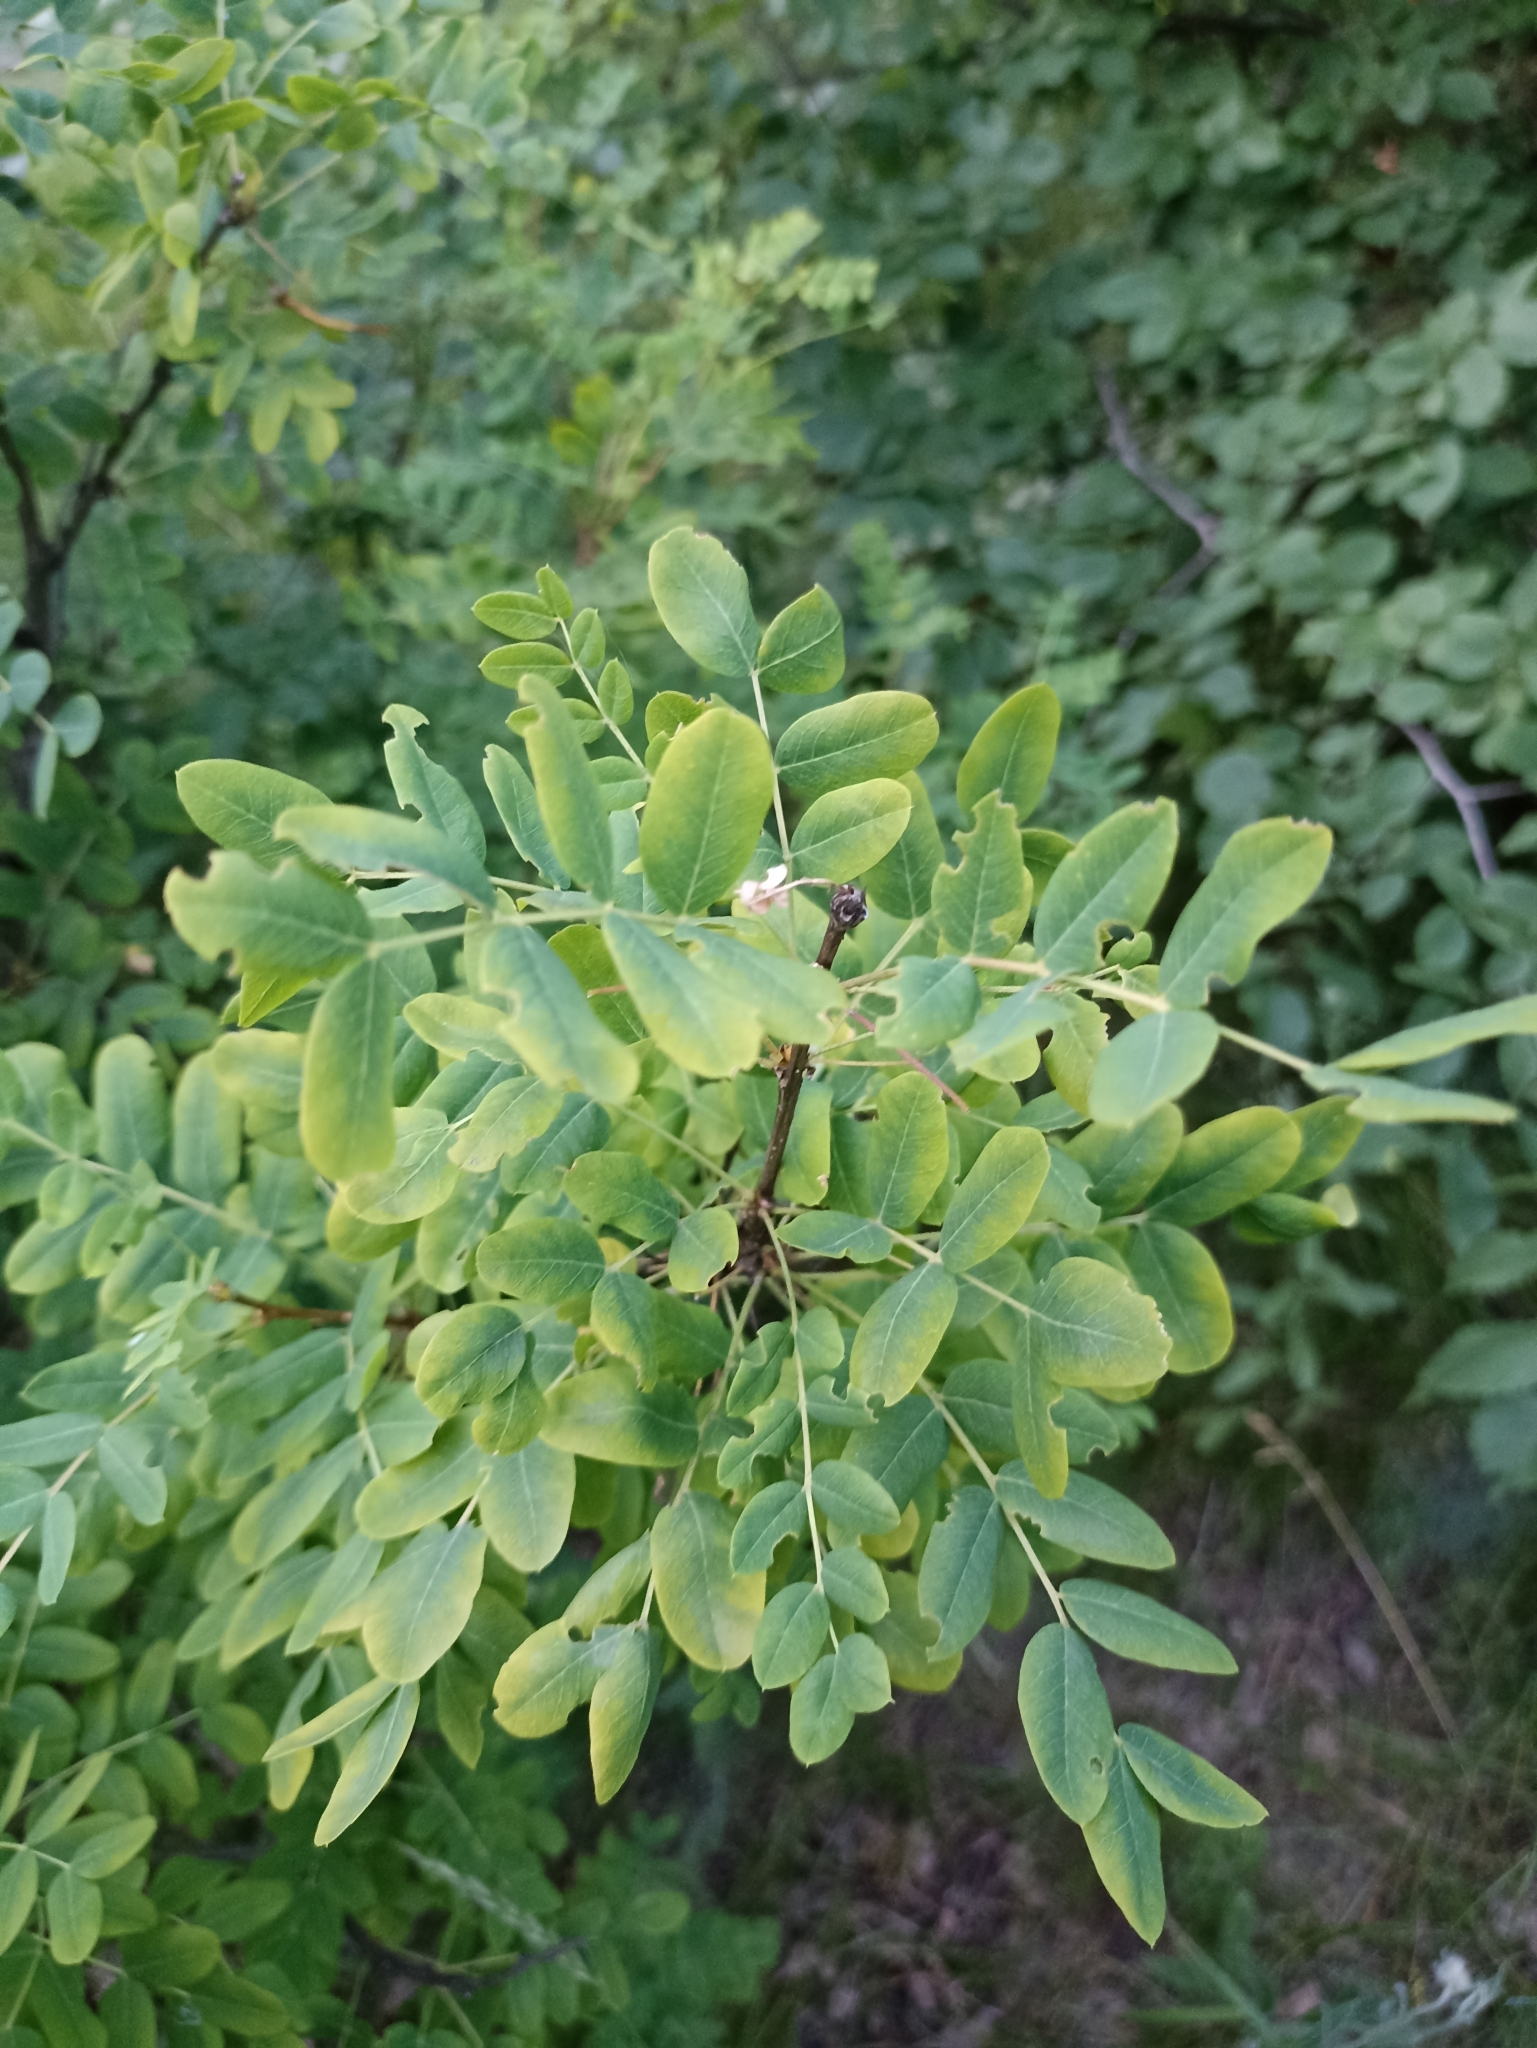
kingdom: Plantae
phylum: Tracheophyta
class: Magnoliopsida
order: Fabales
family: Fabaceae
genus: Caragana
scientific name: Caragana arborescens
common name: Siberian peashrub
